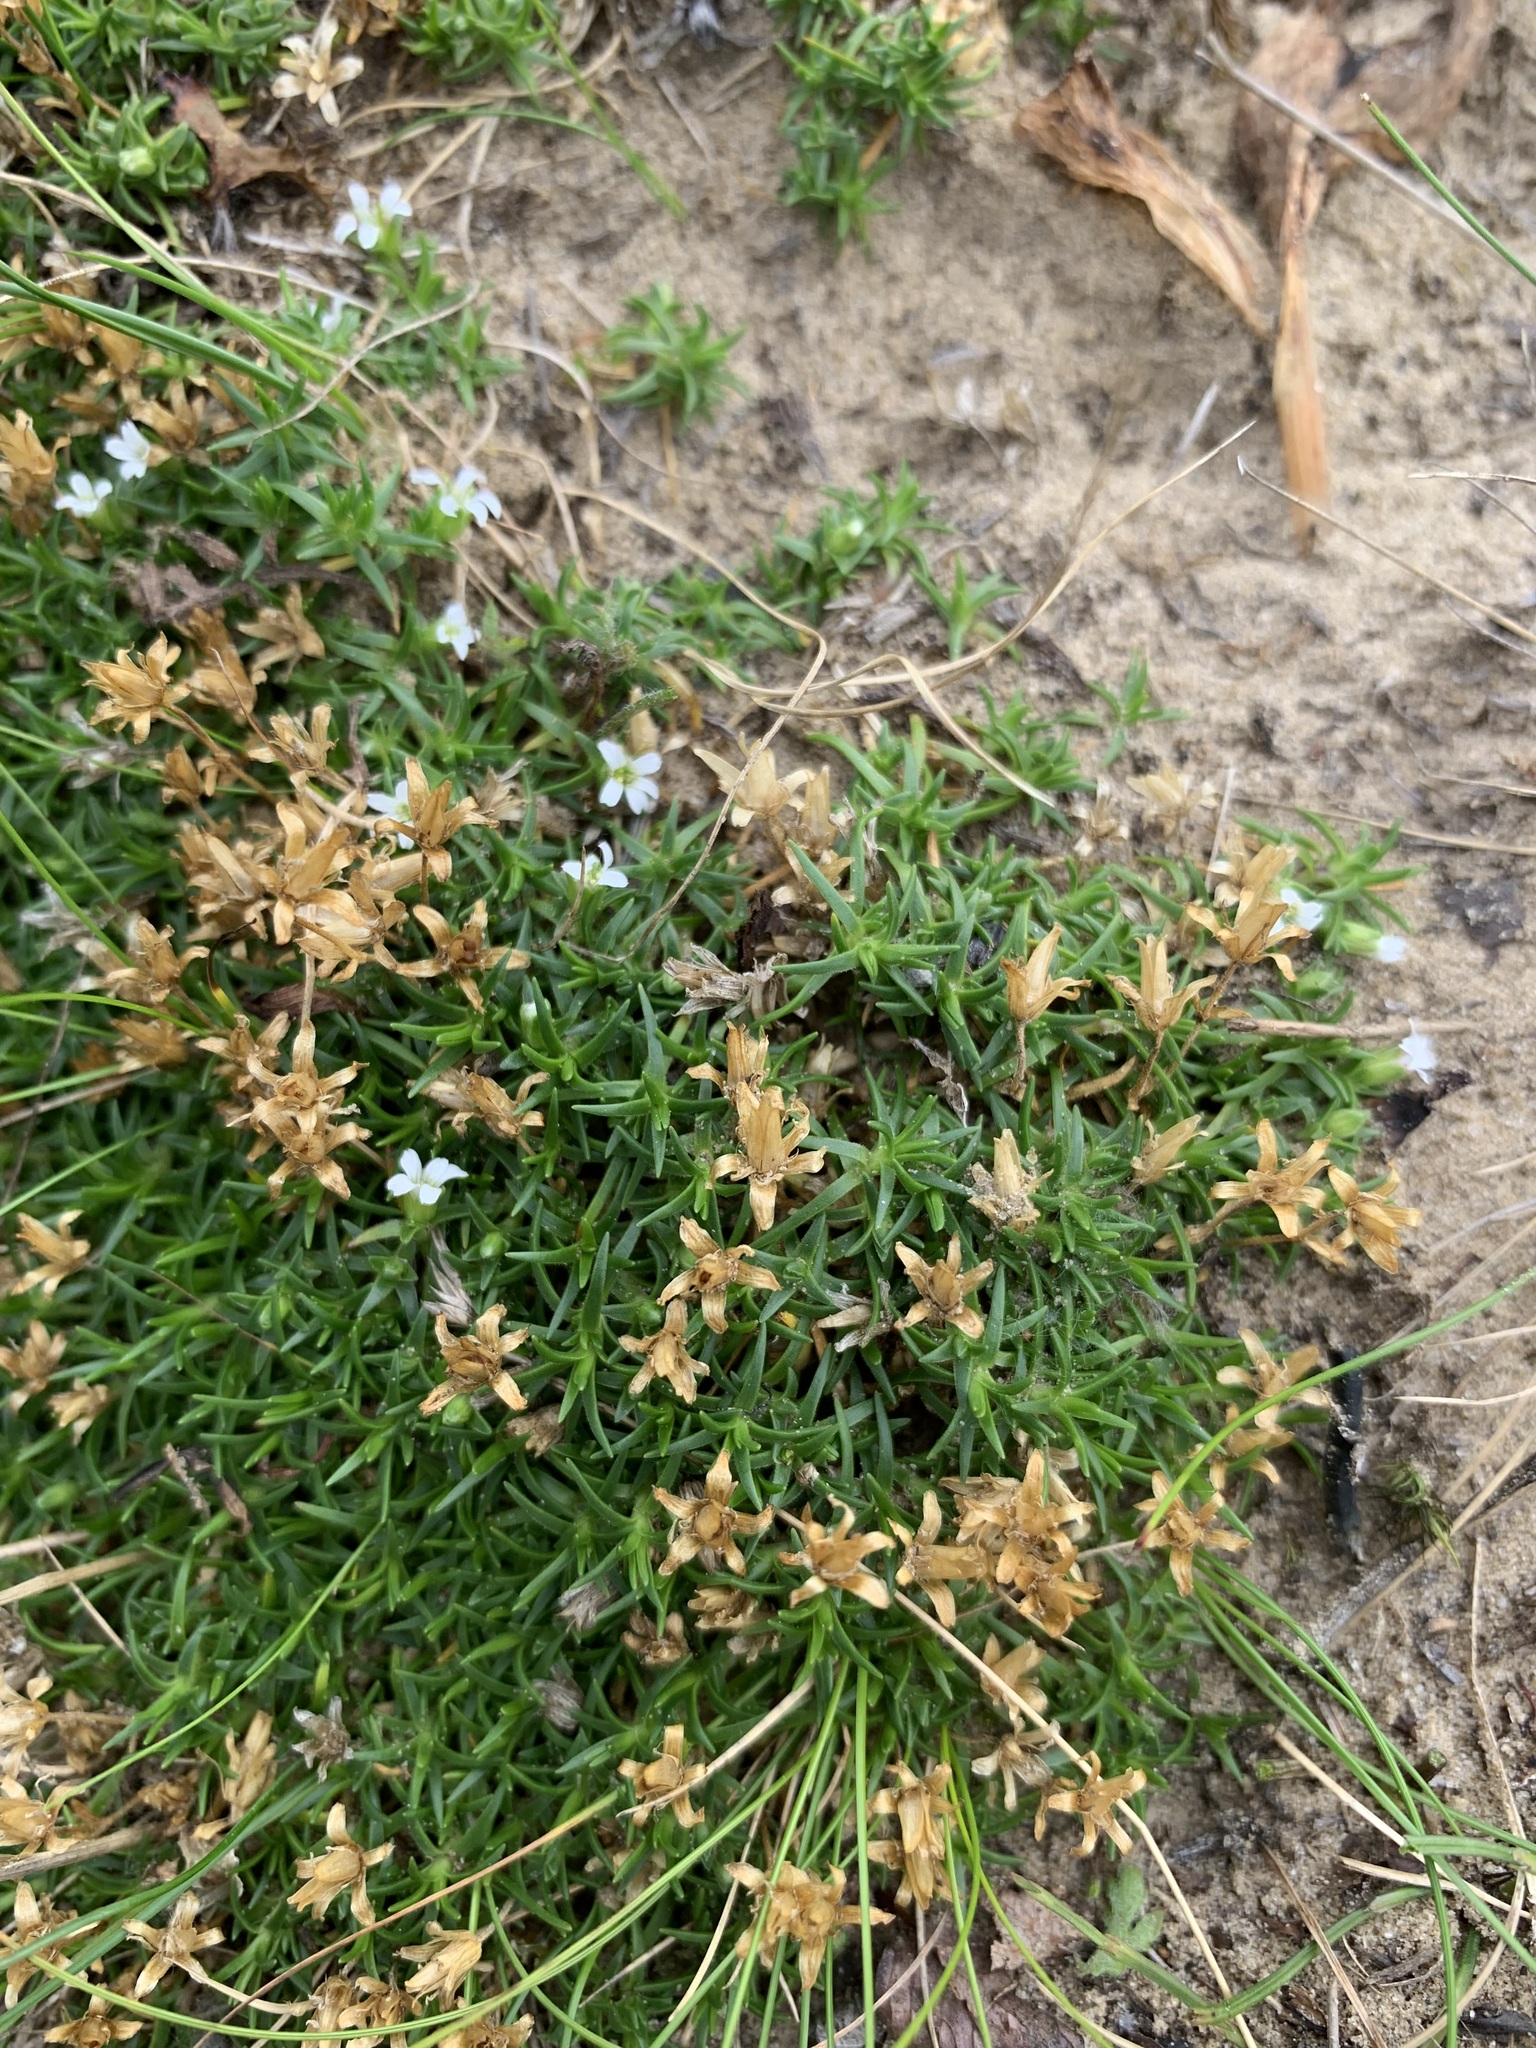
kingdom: Plantae
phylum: Tracheophyta
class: Magnoliopsida
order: Caryophyllales
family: Caryophyllaceae
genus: Cherleria
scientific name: Cherleria biflora
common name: Mountain sandwort
